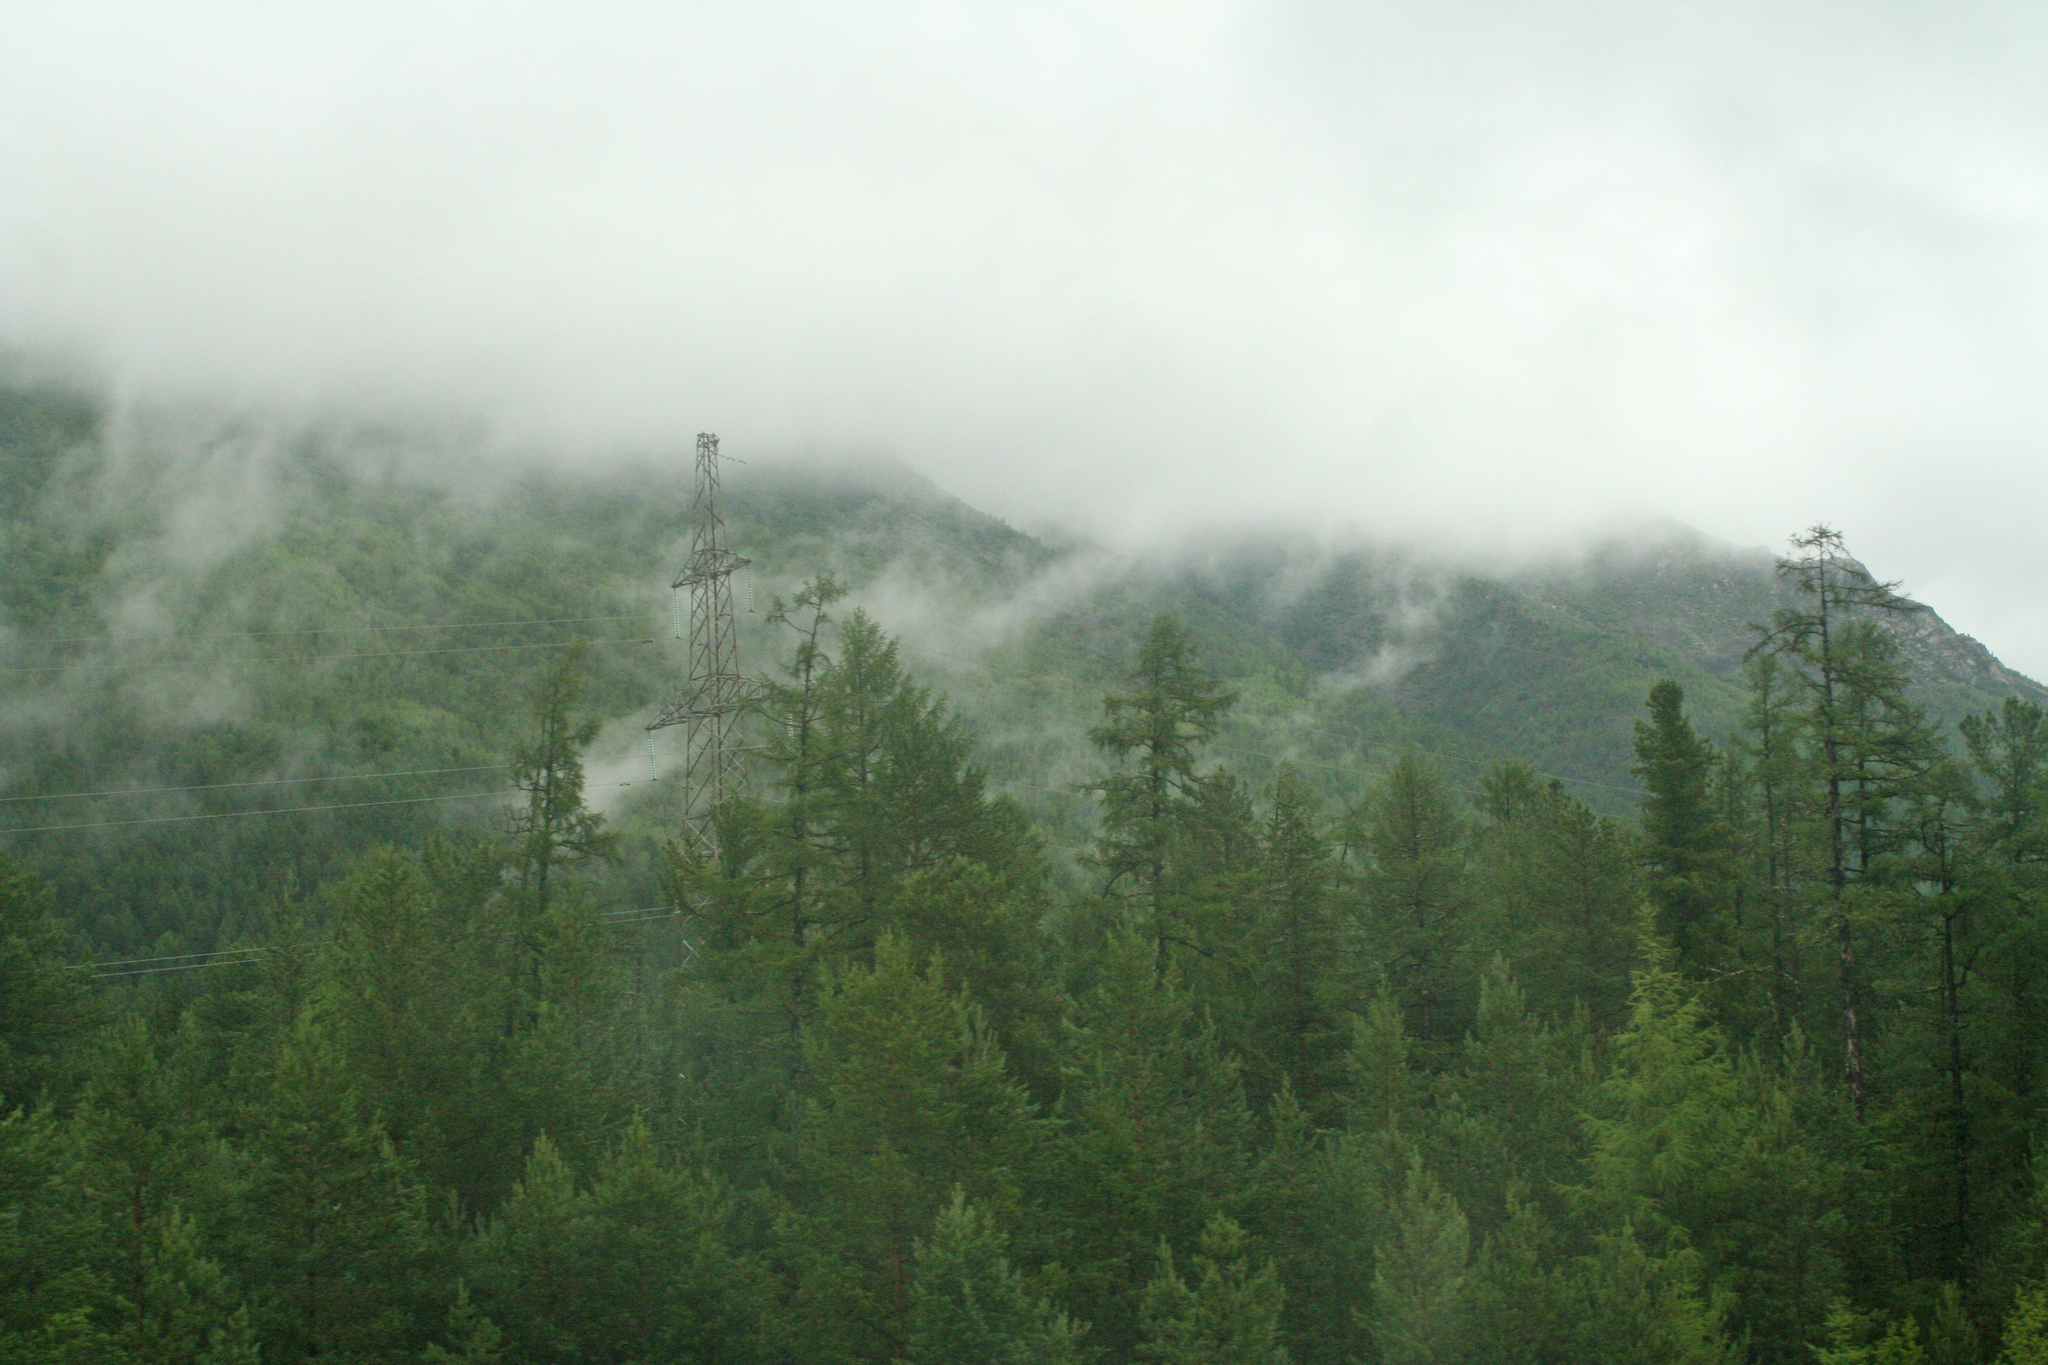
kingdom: Plantae
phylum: Tracheophyta
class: Pinopsida
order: Pinales
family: Pinaceae
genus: Larix
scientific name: Larix gmelinii
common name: Dahurian larch
